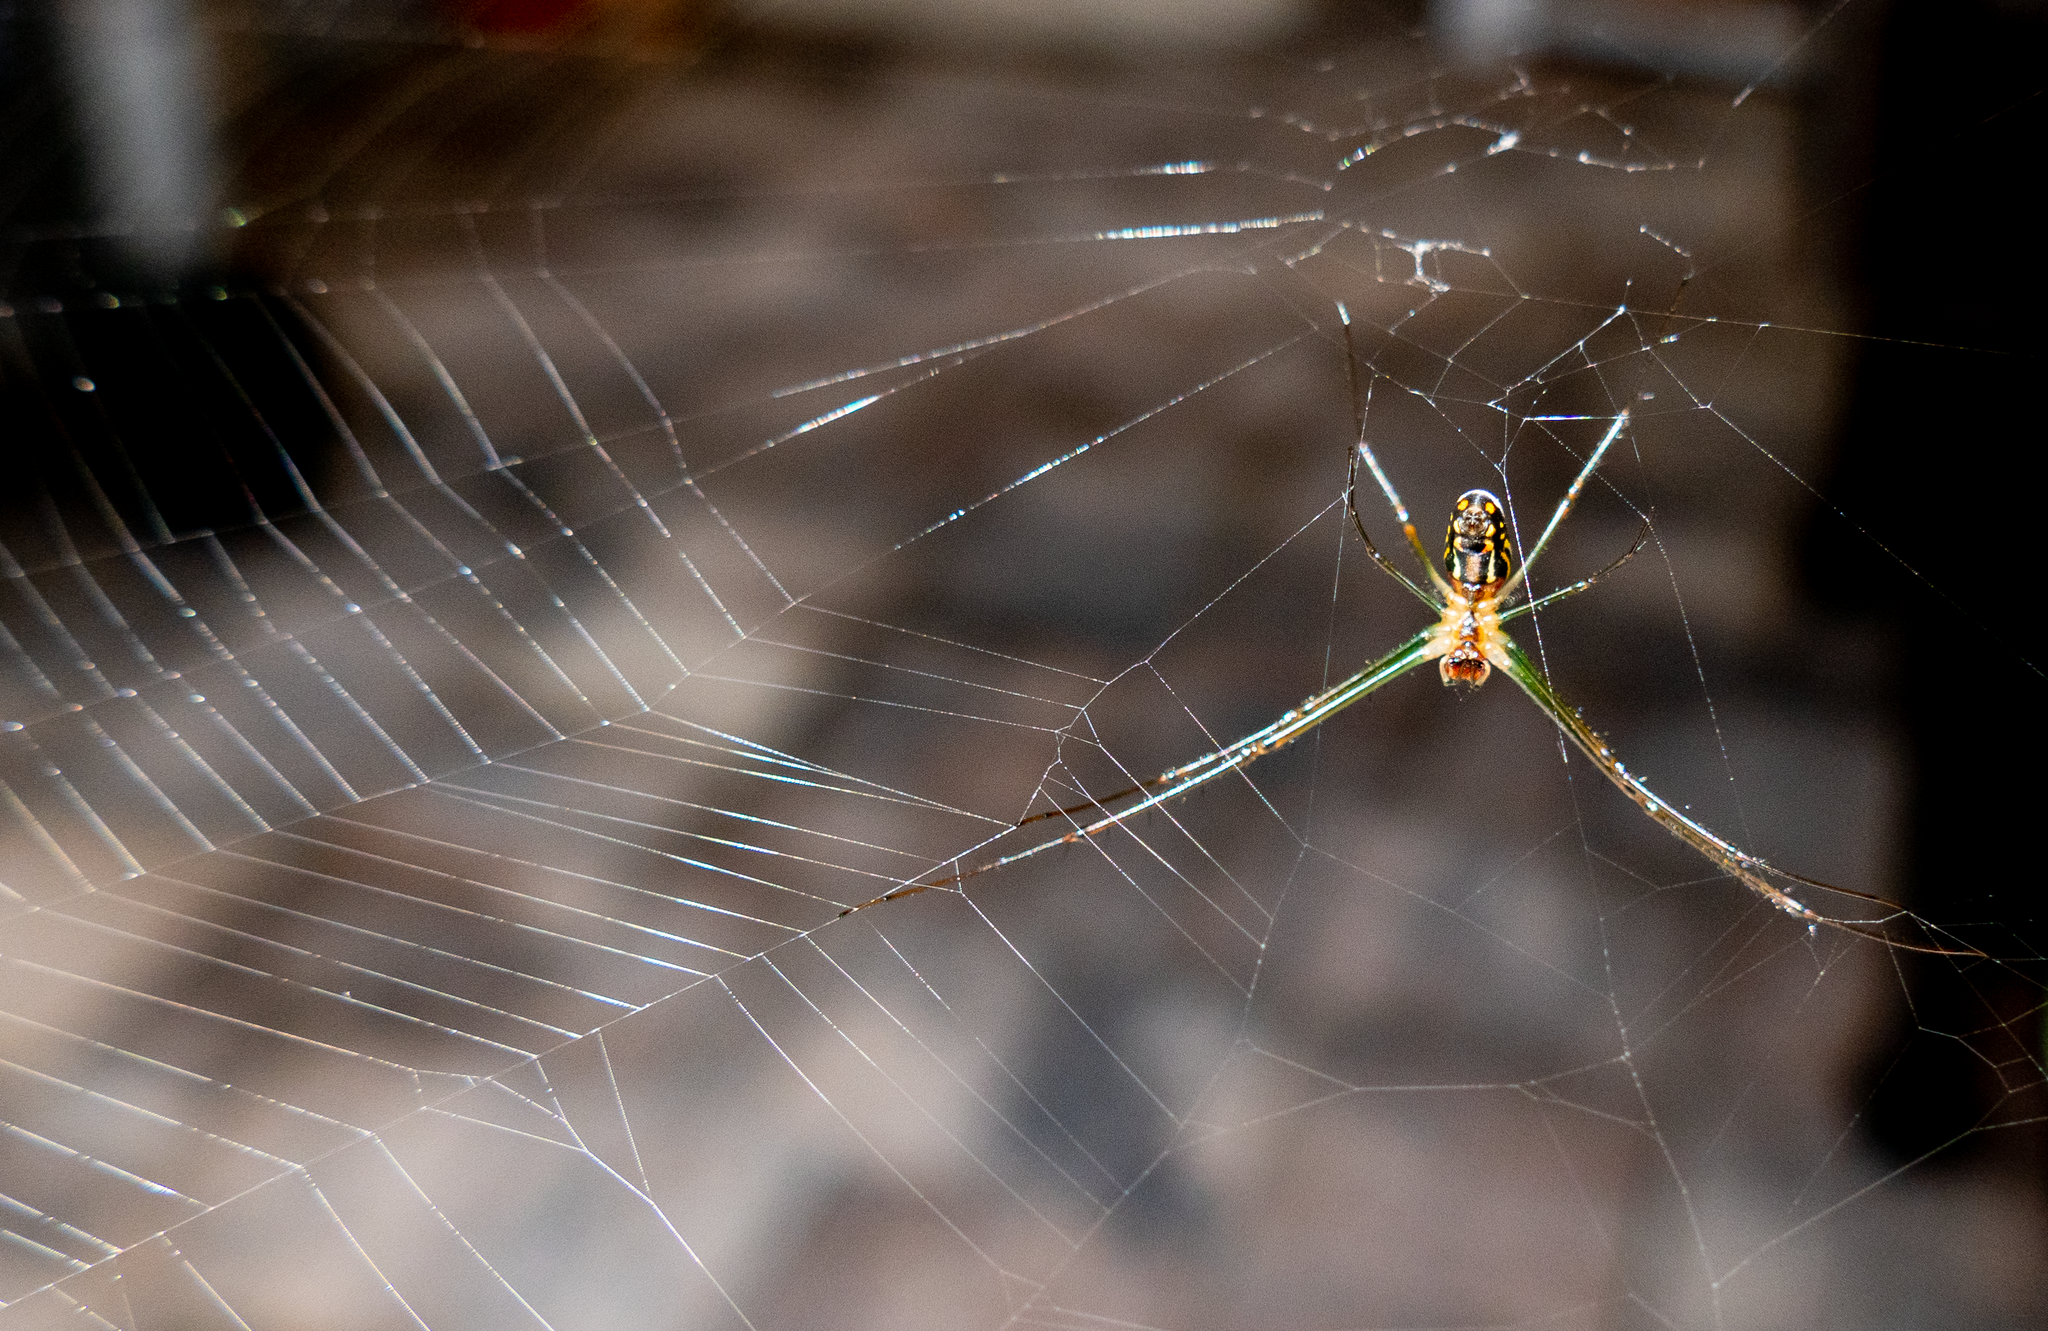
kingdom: Animalia
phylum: Arthropoda
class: Arachnida
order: Araneae
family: Tetragnathidae
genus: Leucauge
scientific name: Leucauge argyra
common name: Longjawed orb weavers
